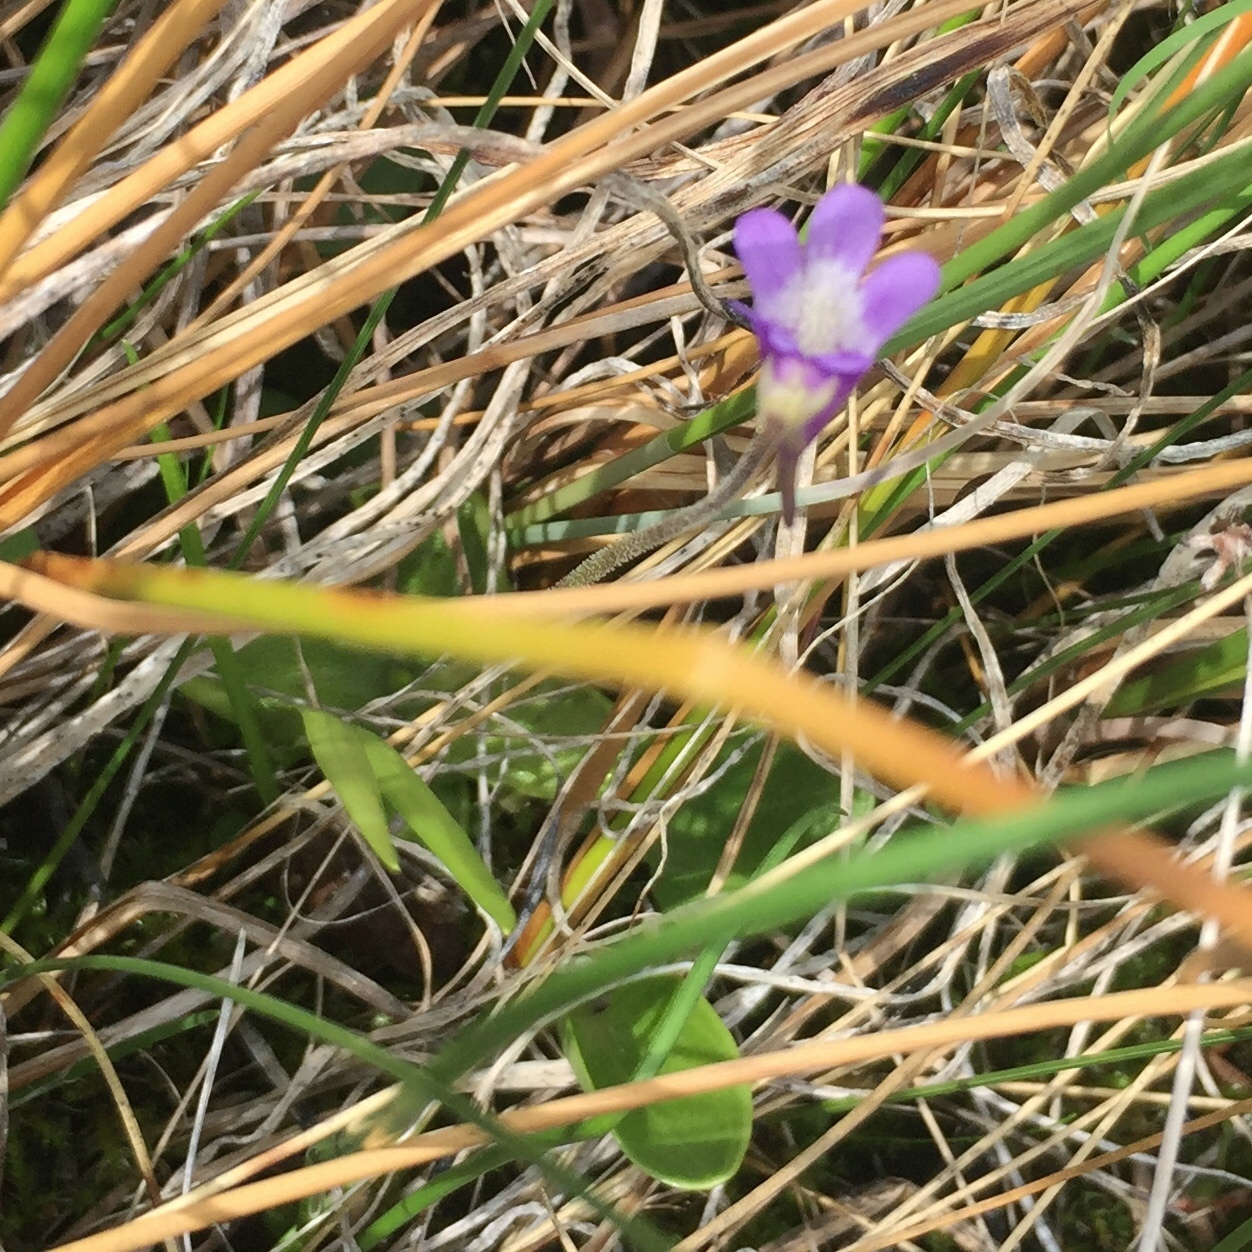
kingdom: Plantae
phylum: Tracheophyta
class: Magnoliopsida
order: Lamiales
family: Lentibulariaceae
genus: Pinguicula
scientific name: Pinguicula vulgaris
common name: Common butterwort
